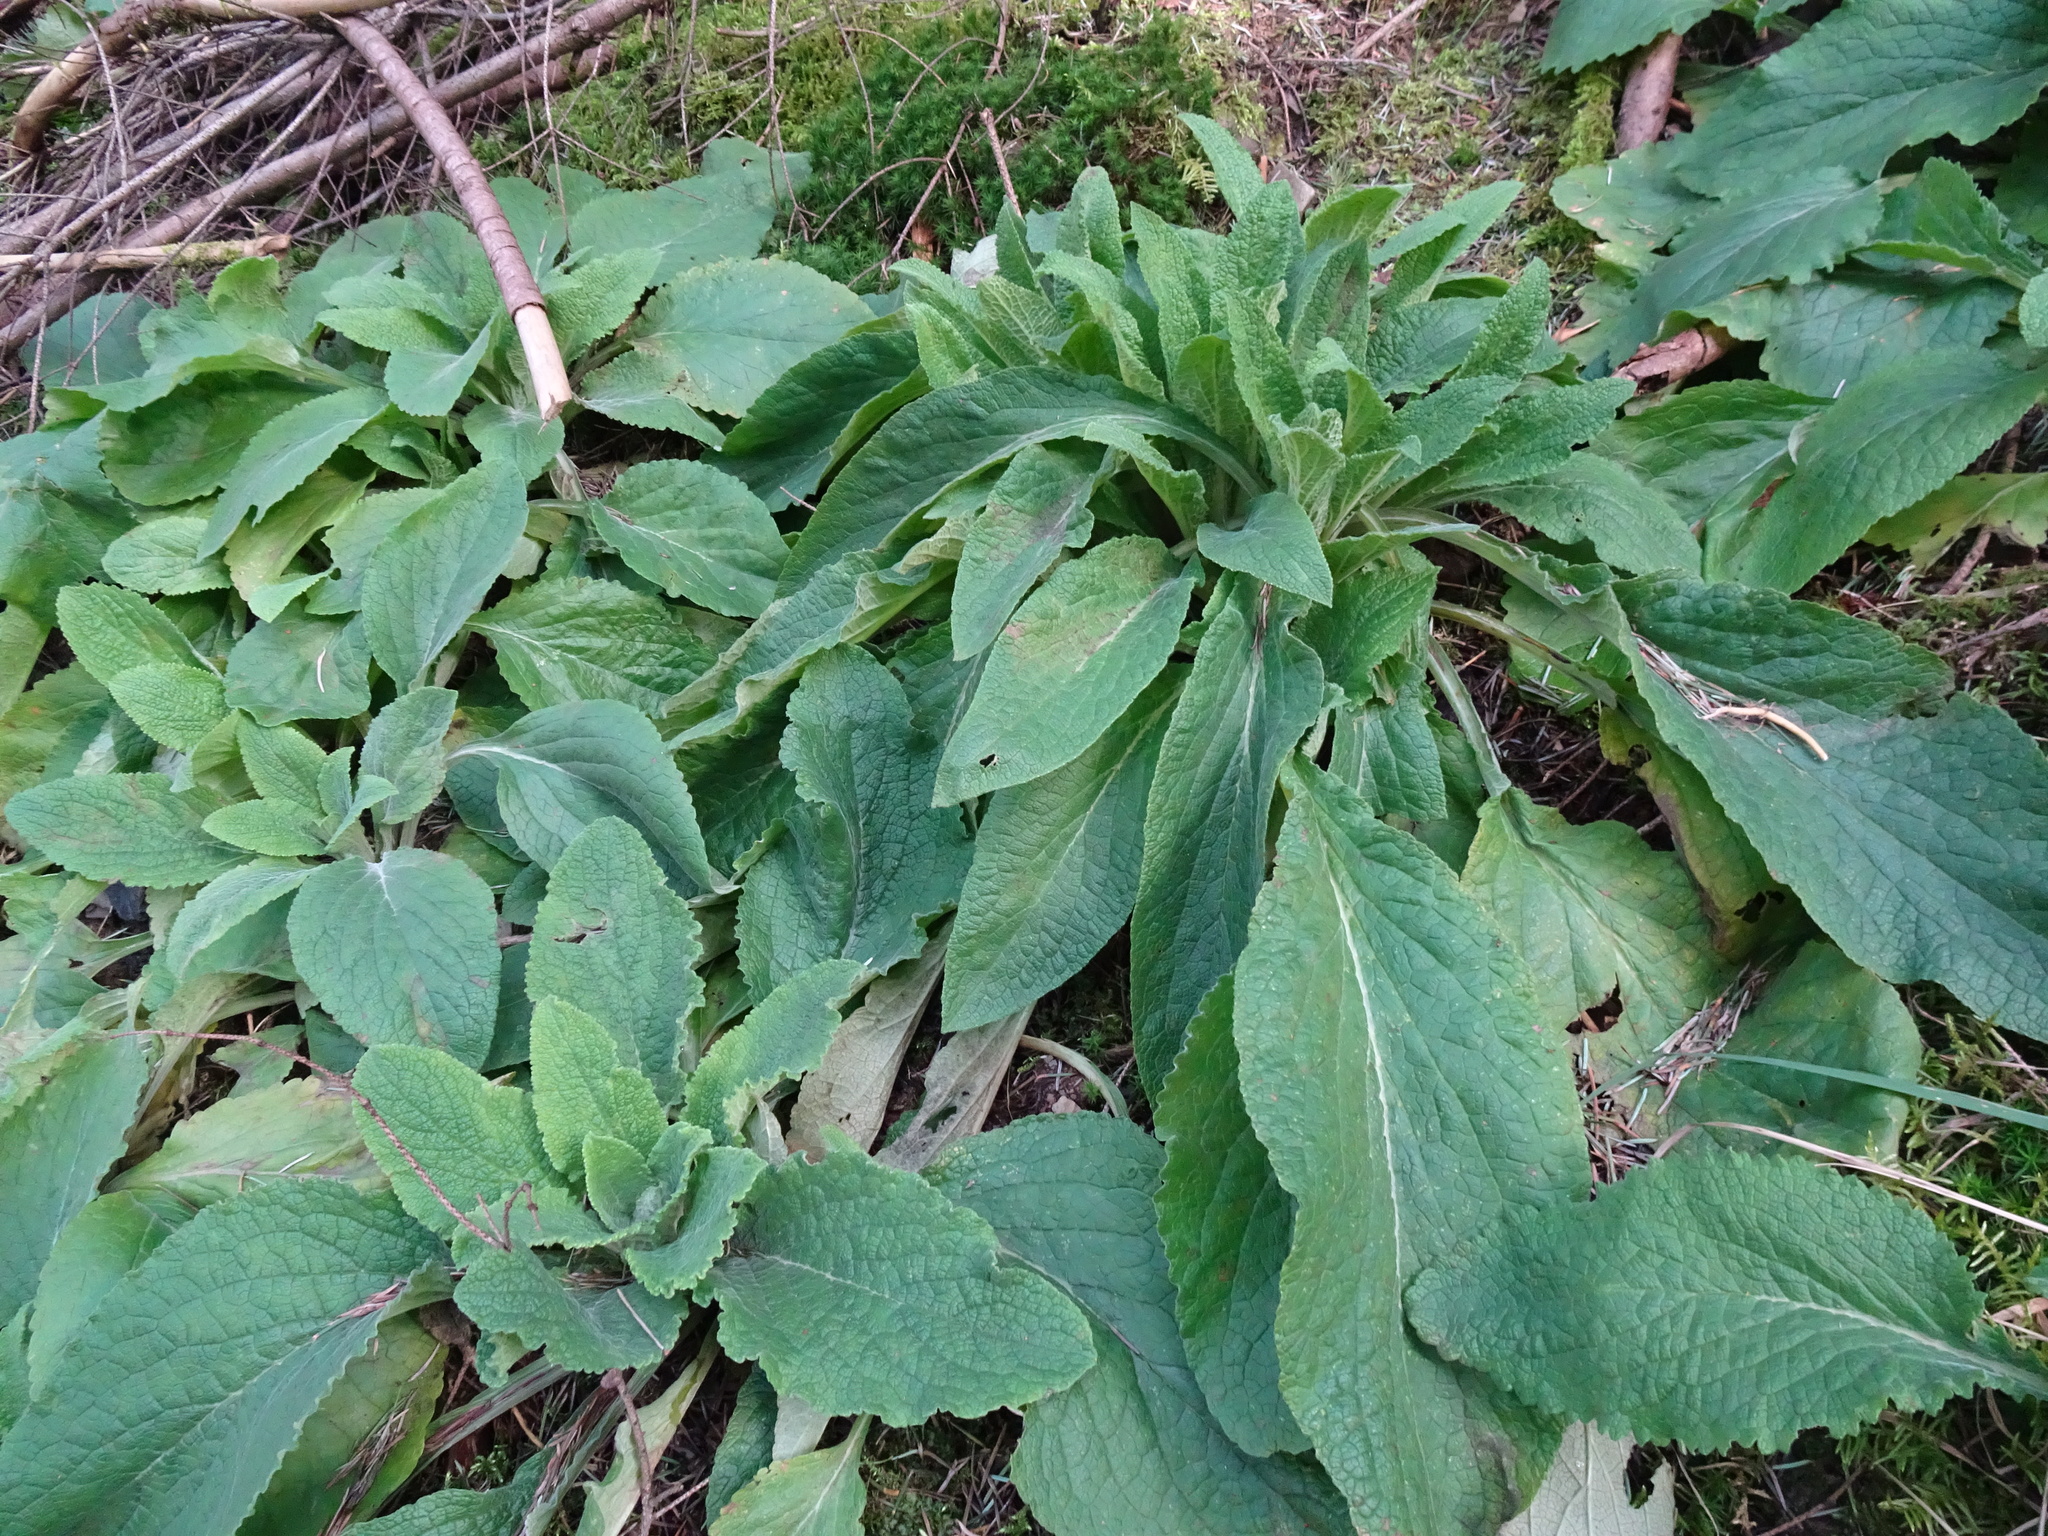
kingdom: Plantae
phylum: Tracheophyta
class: Magnoliopsida
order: Lamiales
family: Plantaginaceae
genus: Digitalis
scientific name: Digitalis purpurea
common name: Foxglove
